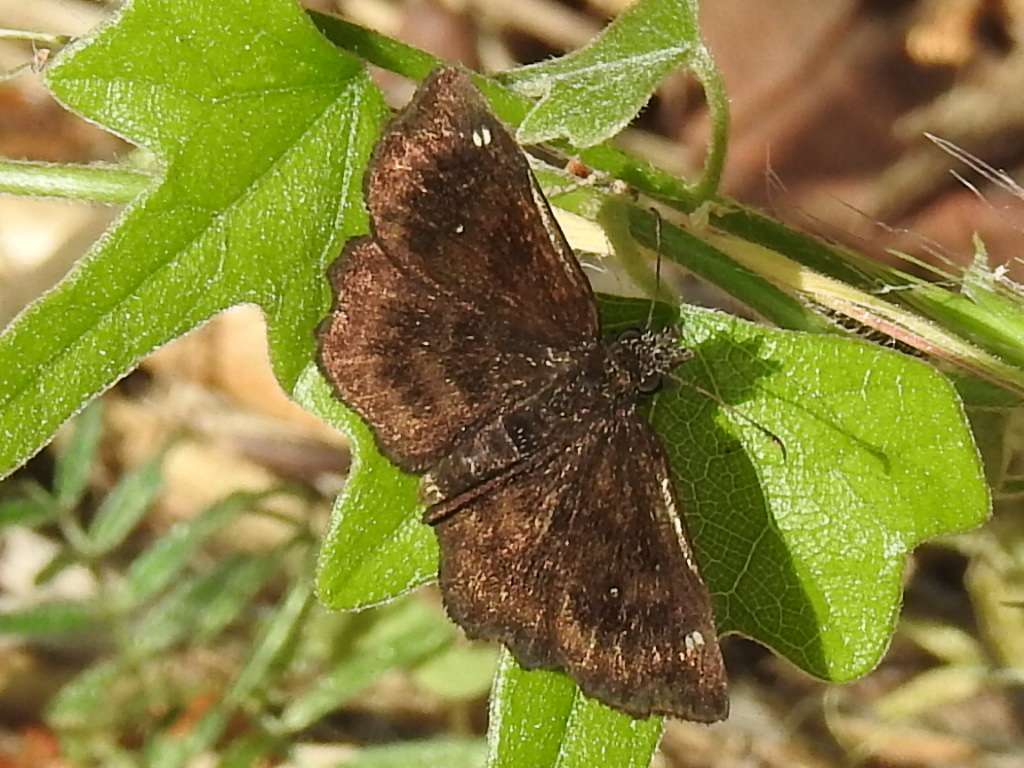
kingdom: Animalia
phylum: Arthropoda
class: Insecta
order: Lepidoptera
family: Hesperiidae
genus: Staphylus
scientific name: Staphylus mazans
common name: Mazans scallopwing
